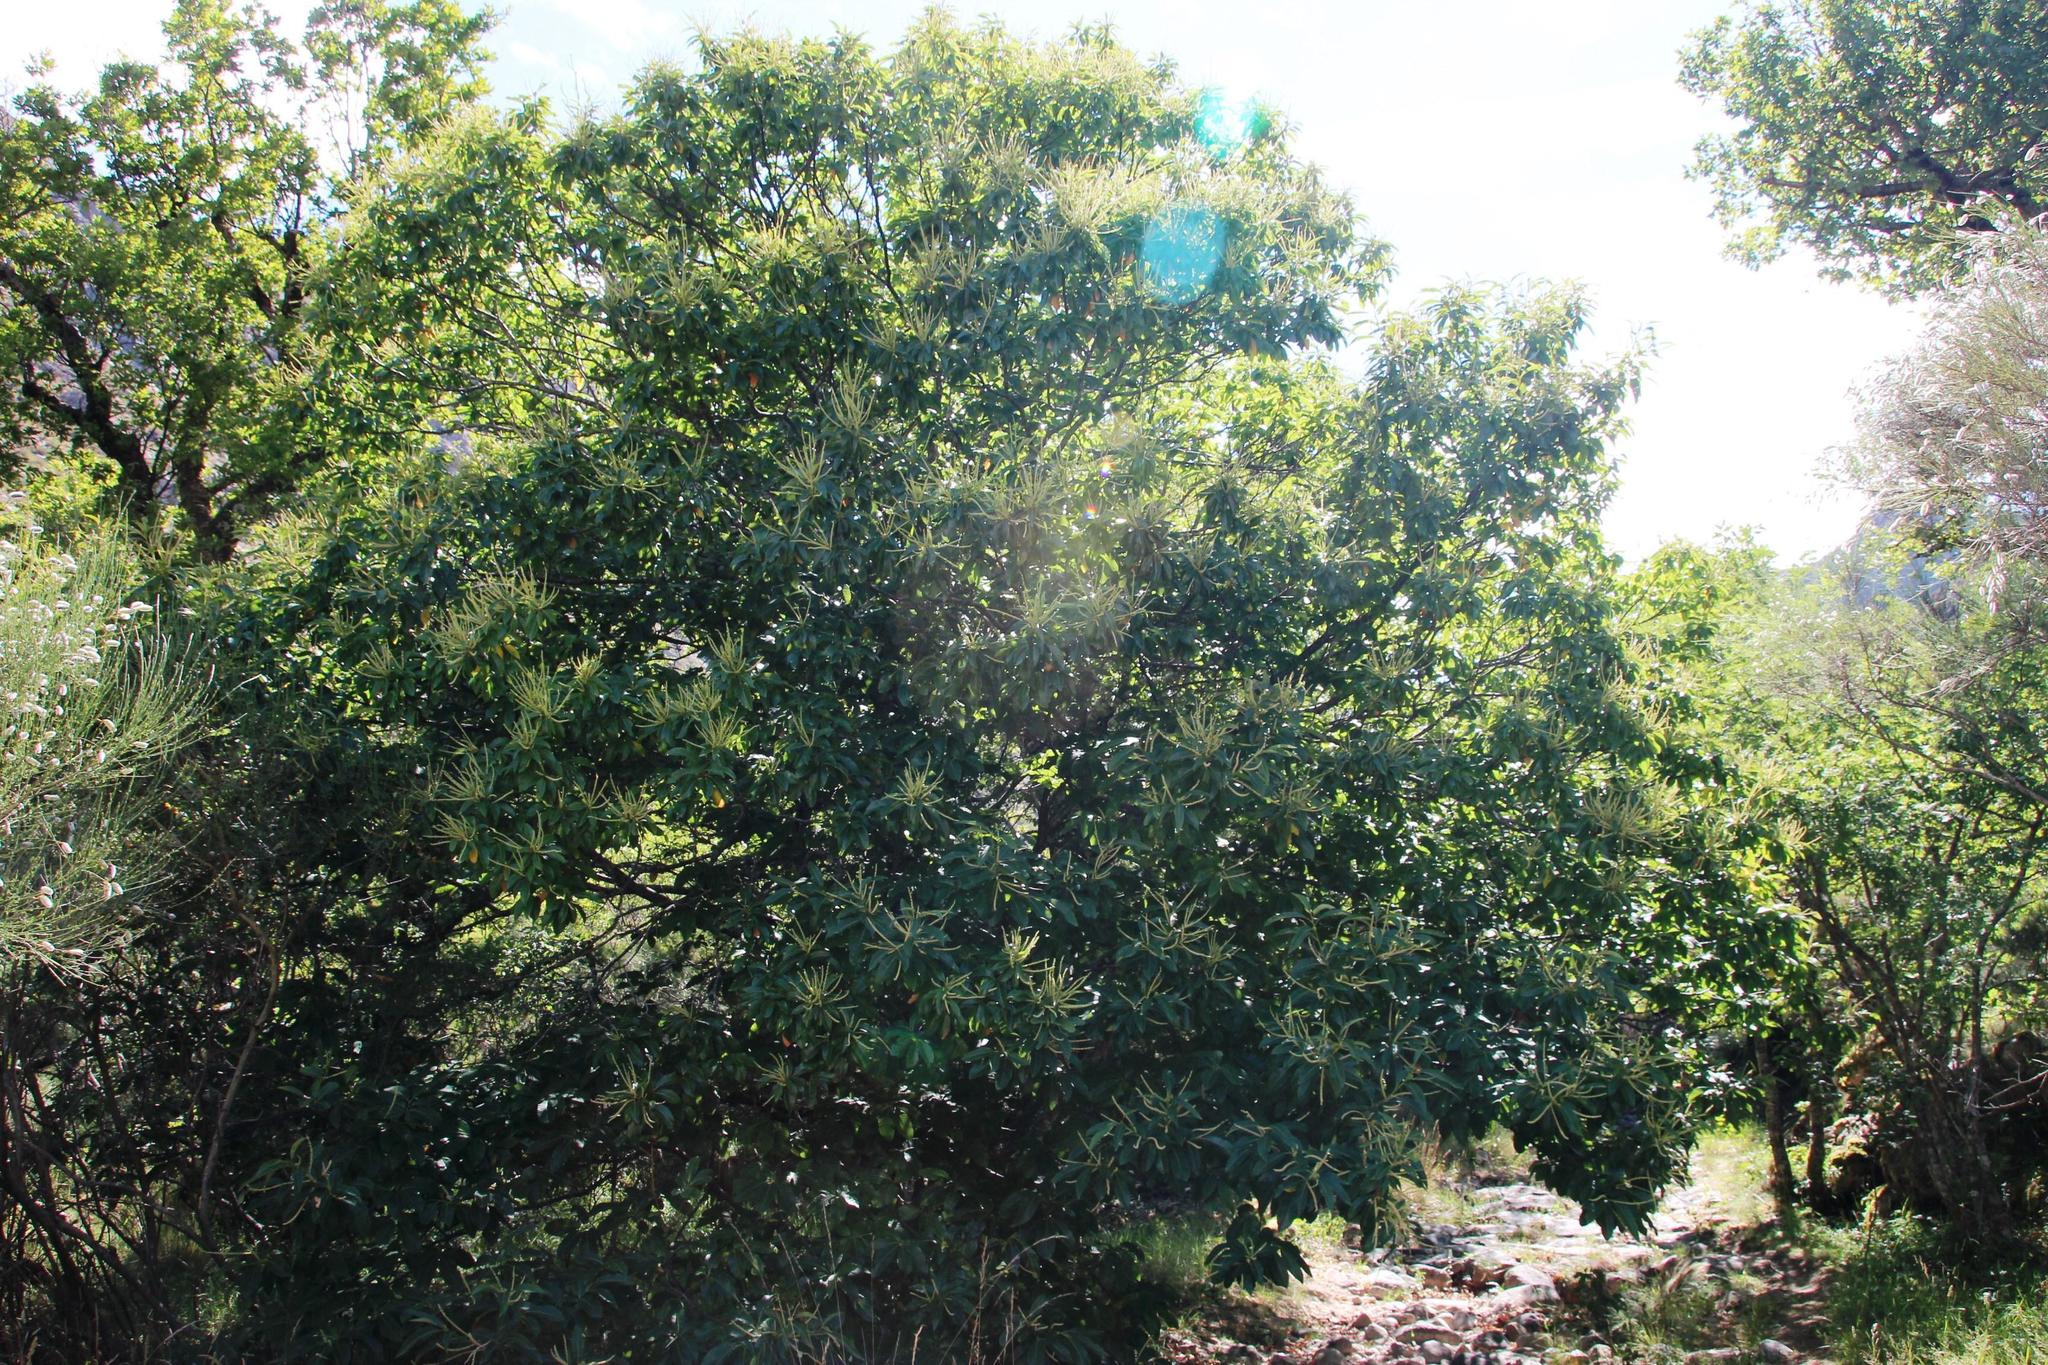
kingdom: Plantae
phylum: Tracheophyta
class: Magnoliopsida
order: Fagales
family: Fagaceae
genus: Castanea
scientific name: Castanea sativa
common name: Sweet chestnut
